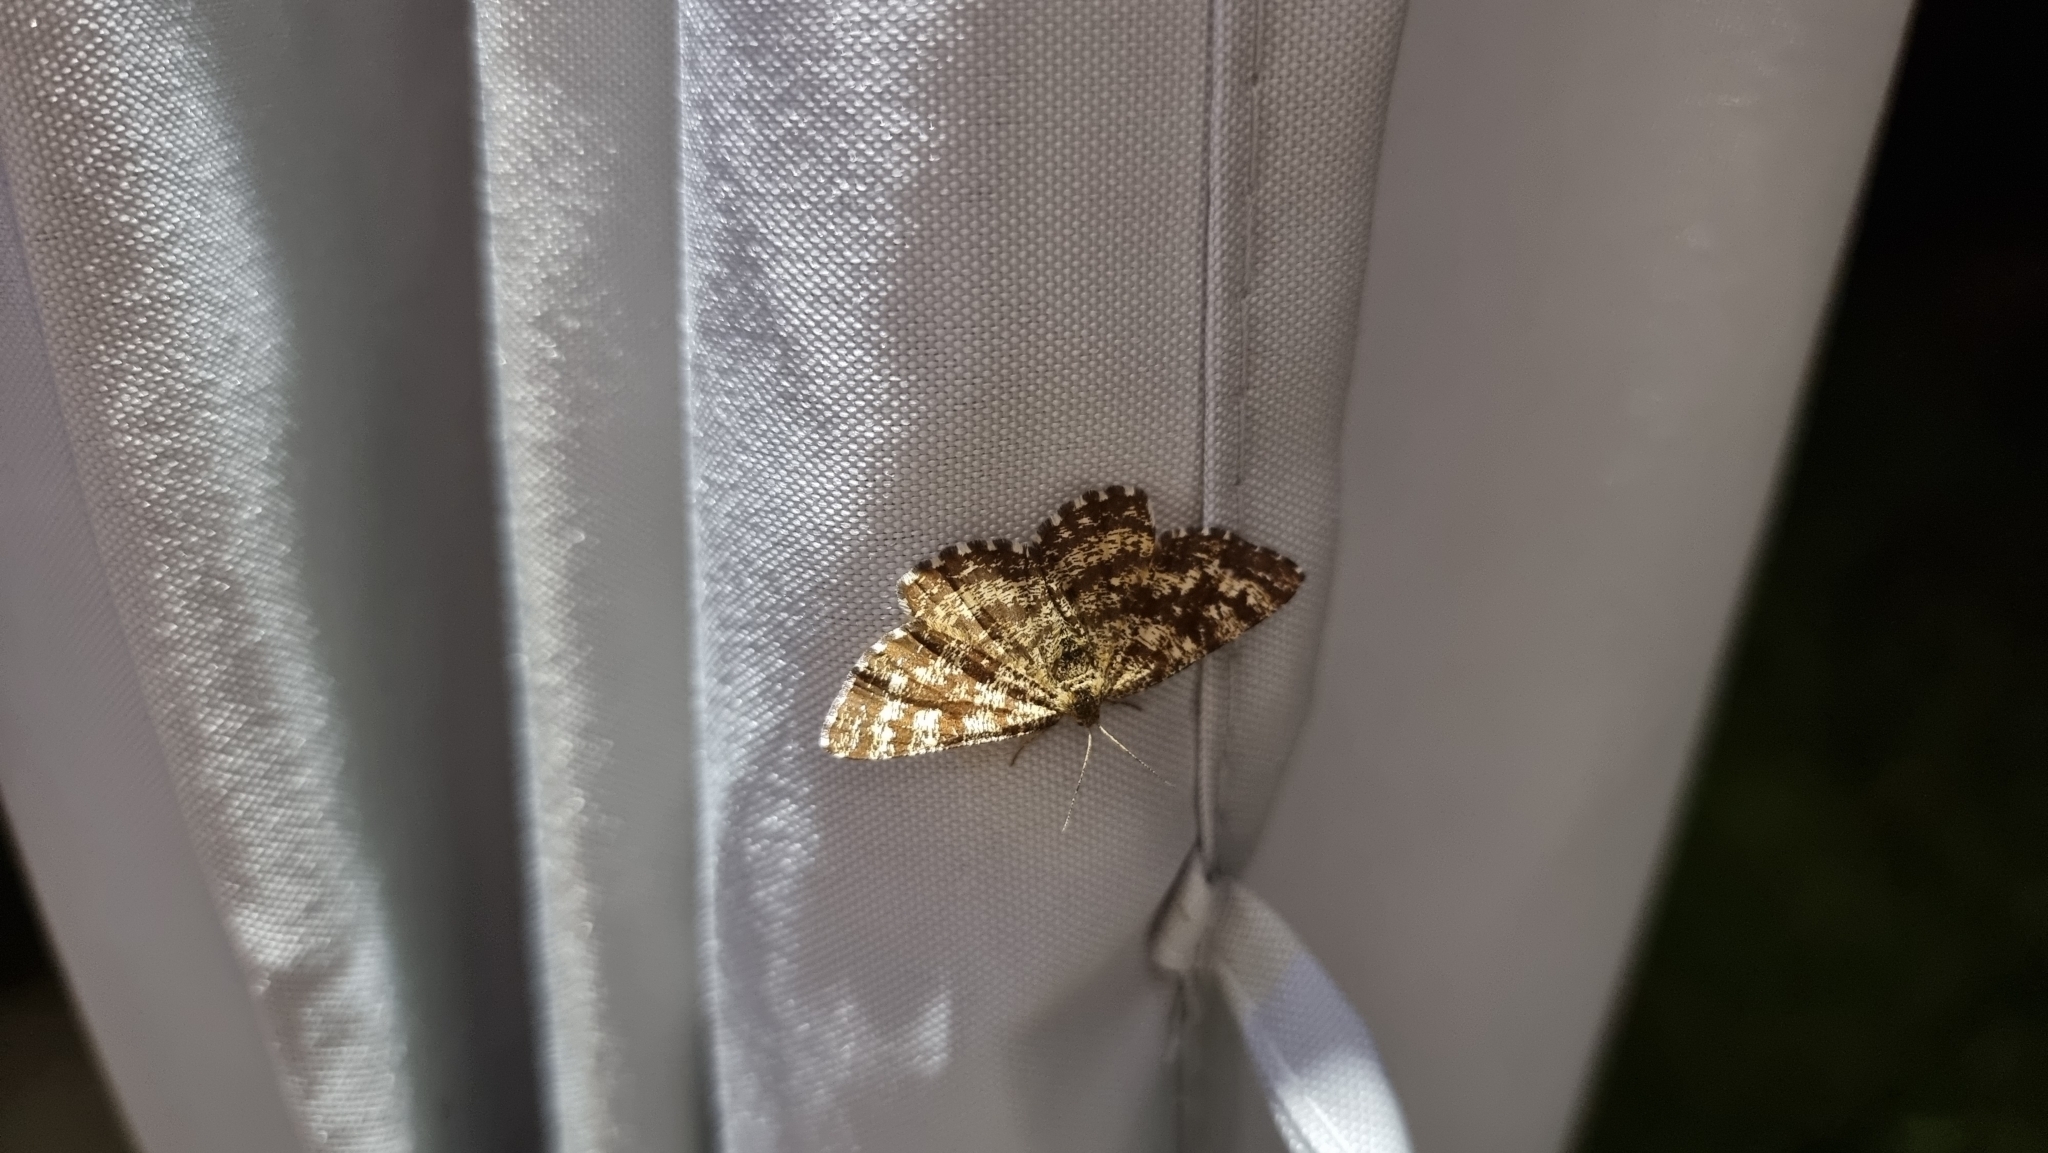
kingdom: Animalia
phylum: Arthropoda
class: Insecta
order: Lepidoptera
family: Geometridae
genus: Chiasmia
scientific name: Chiasmia clathrata
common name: Latticed heath
